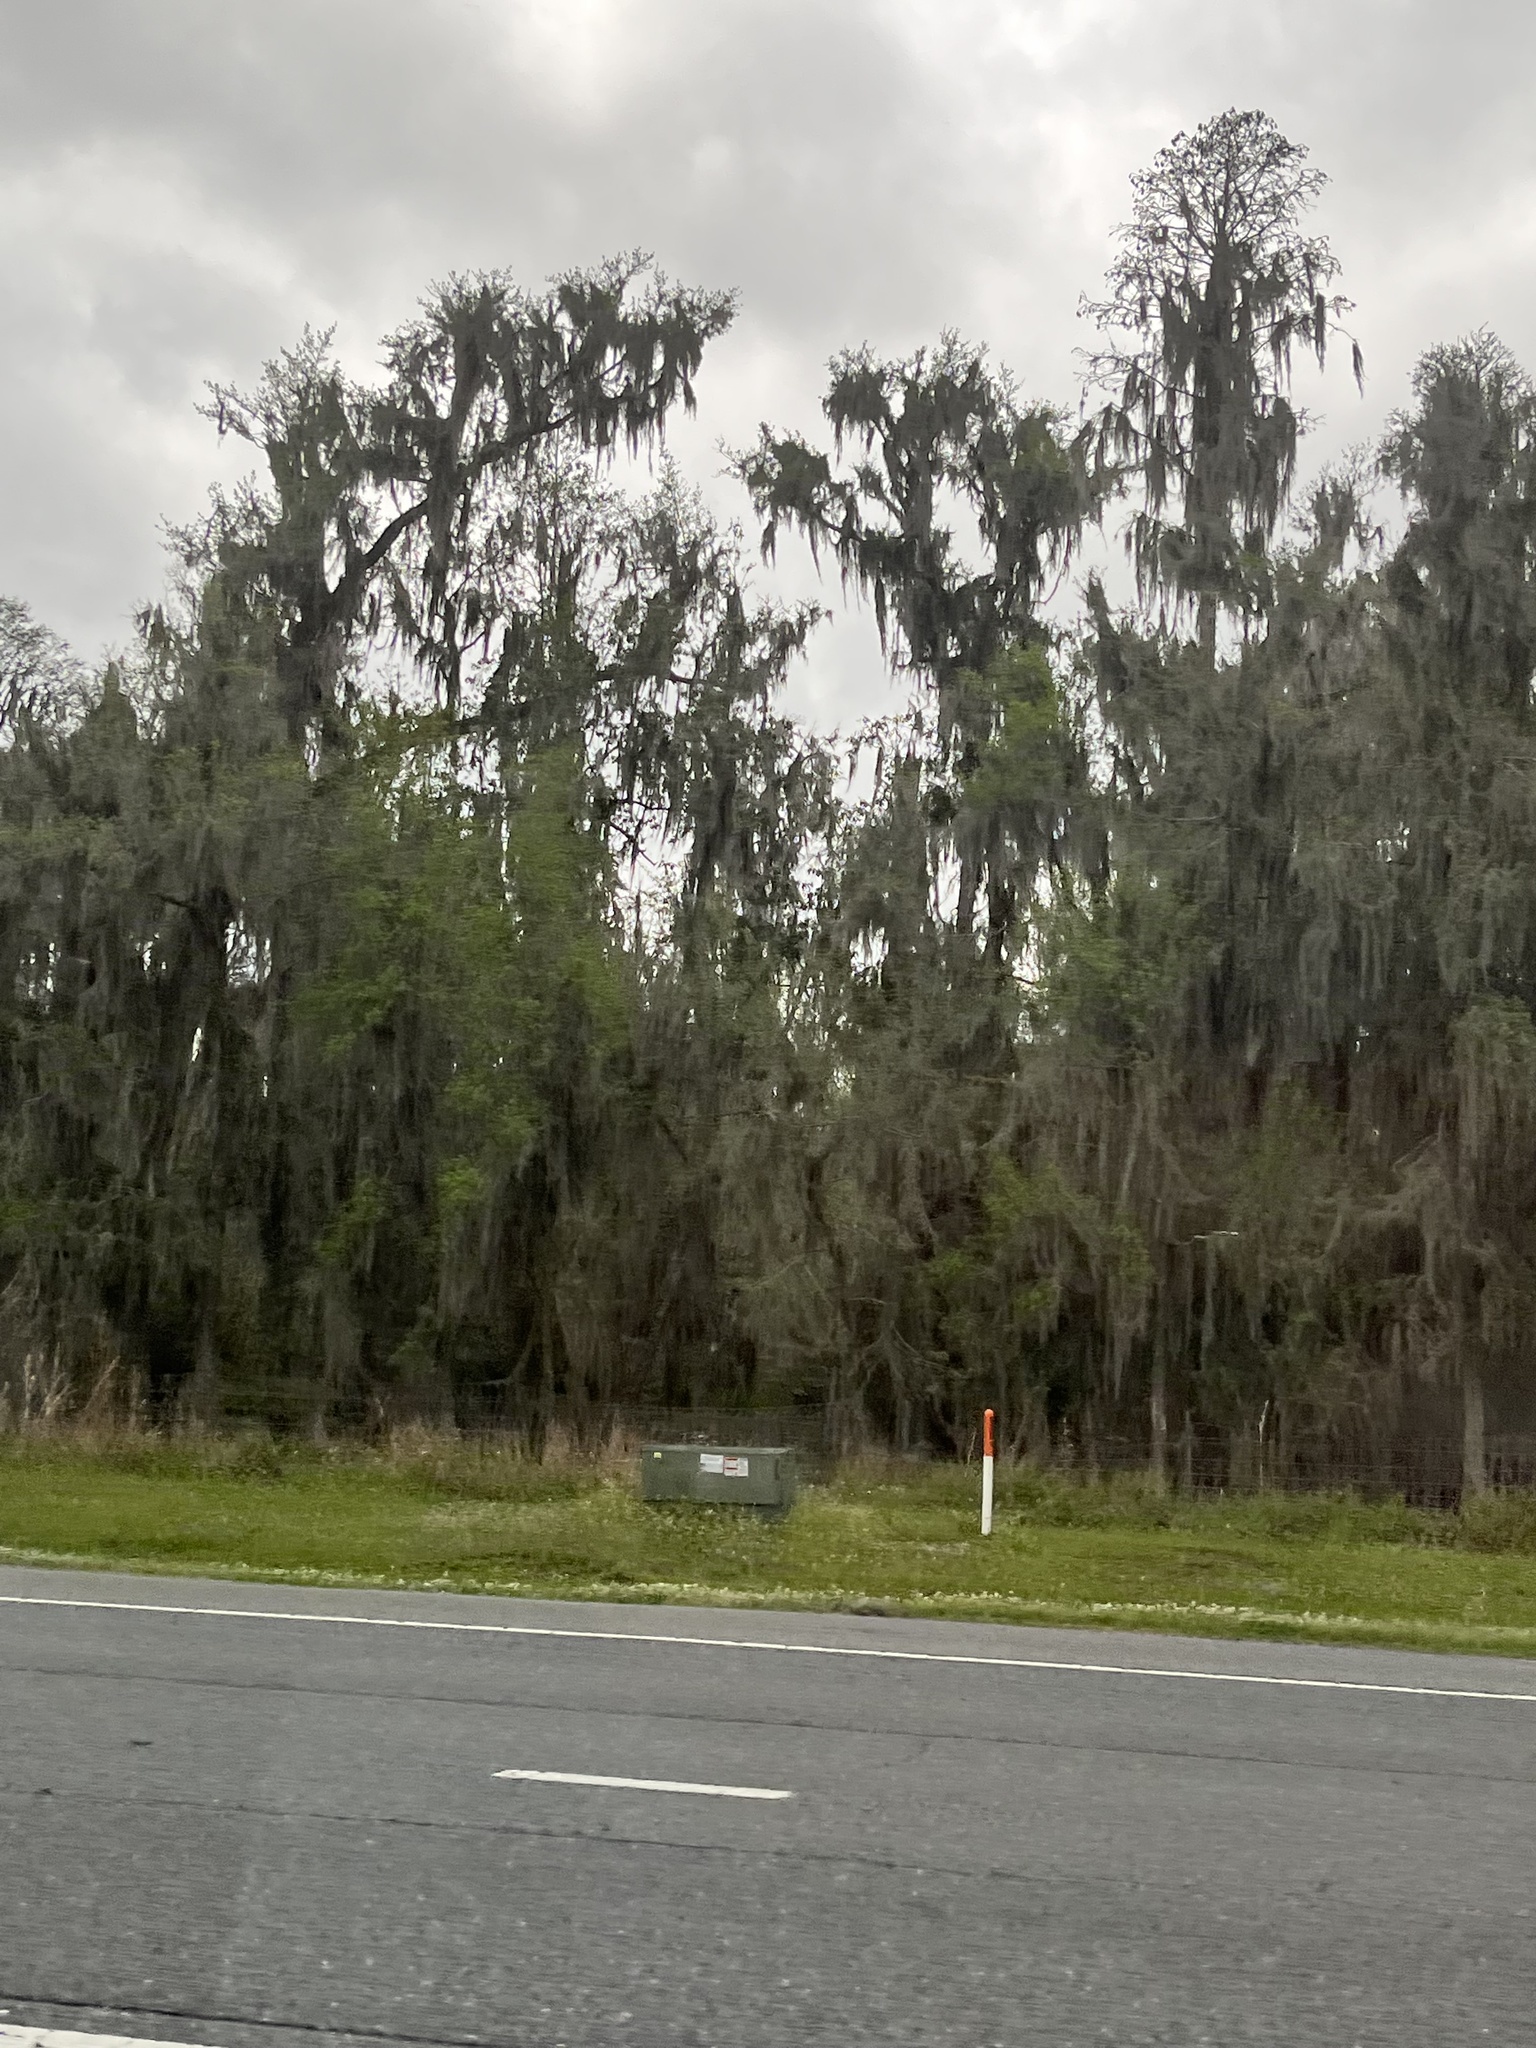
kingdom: Plantae
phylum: Tracheophyta
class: Liliopsida
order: Poales
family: Bromeliaceae
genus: Tillandsia
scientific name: Tillandsia usneoides
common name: Spanish moss
